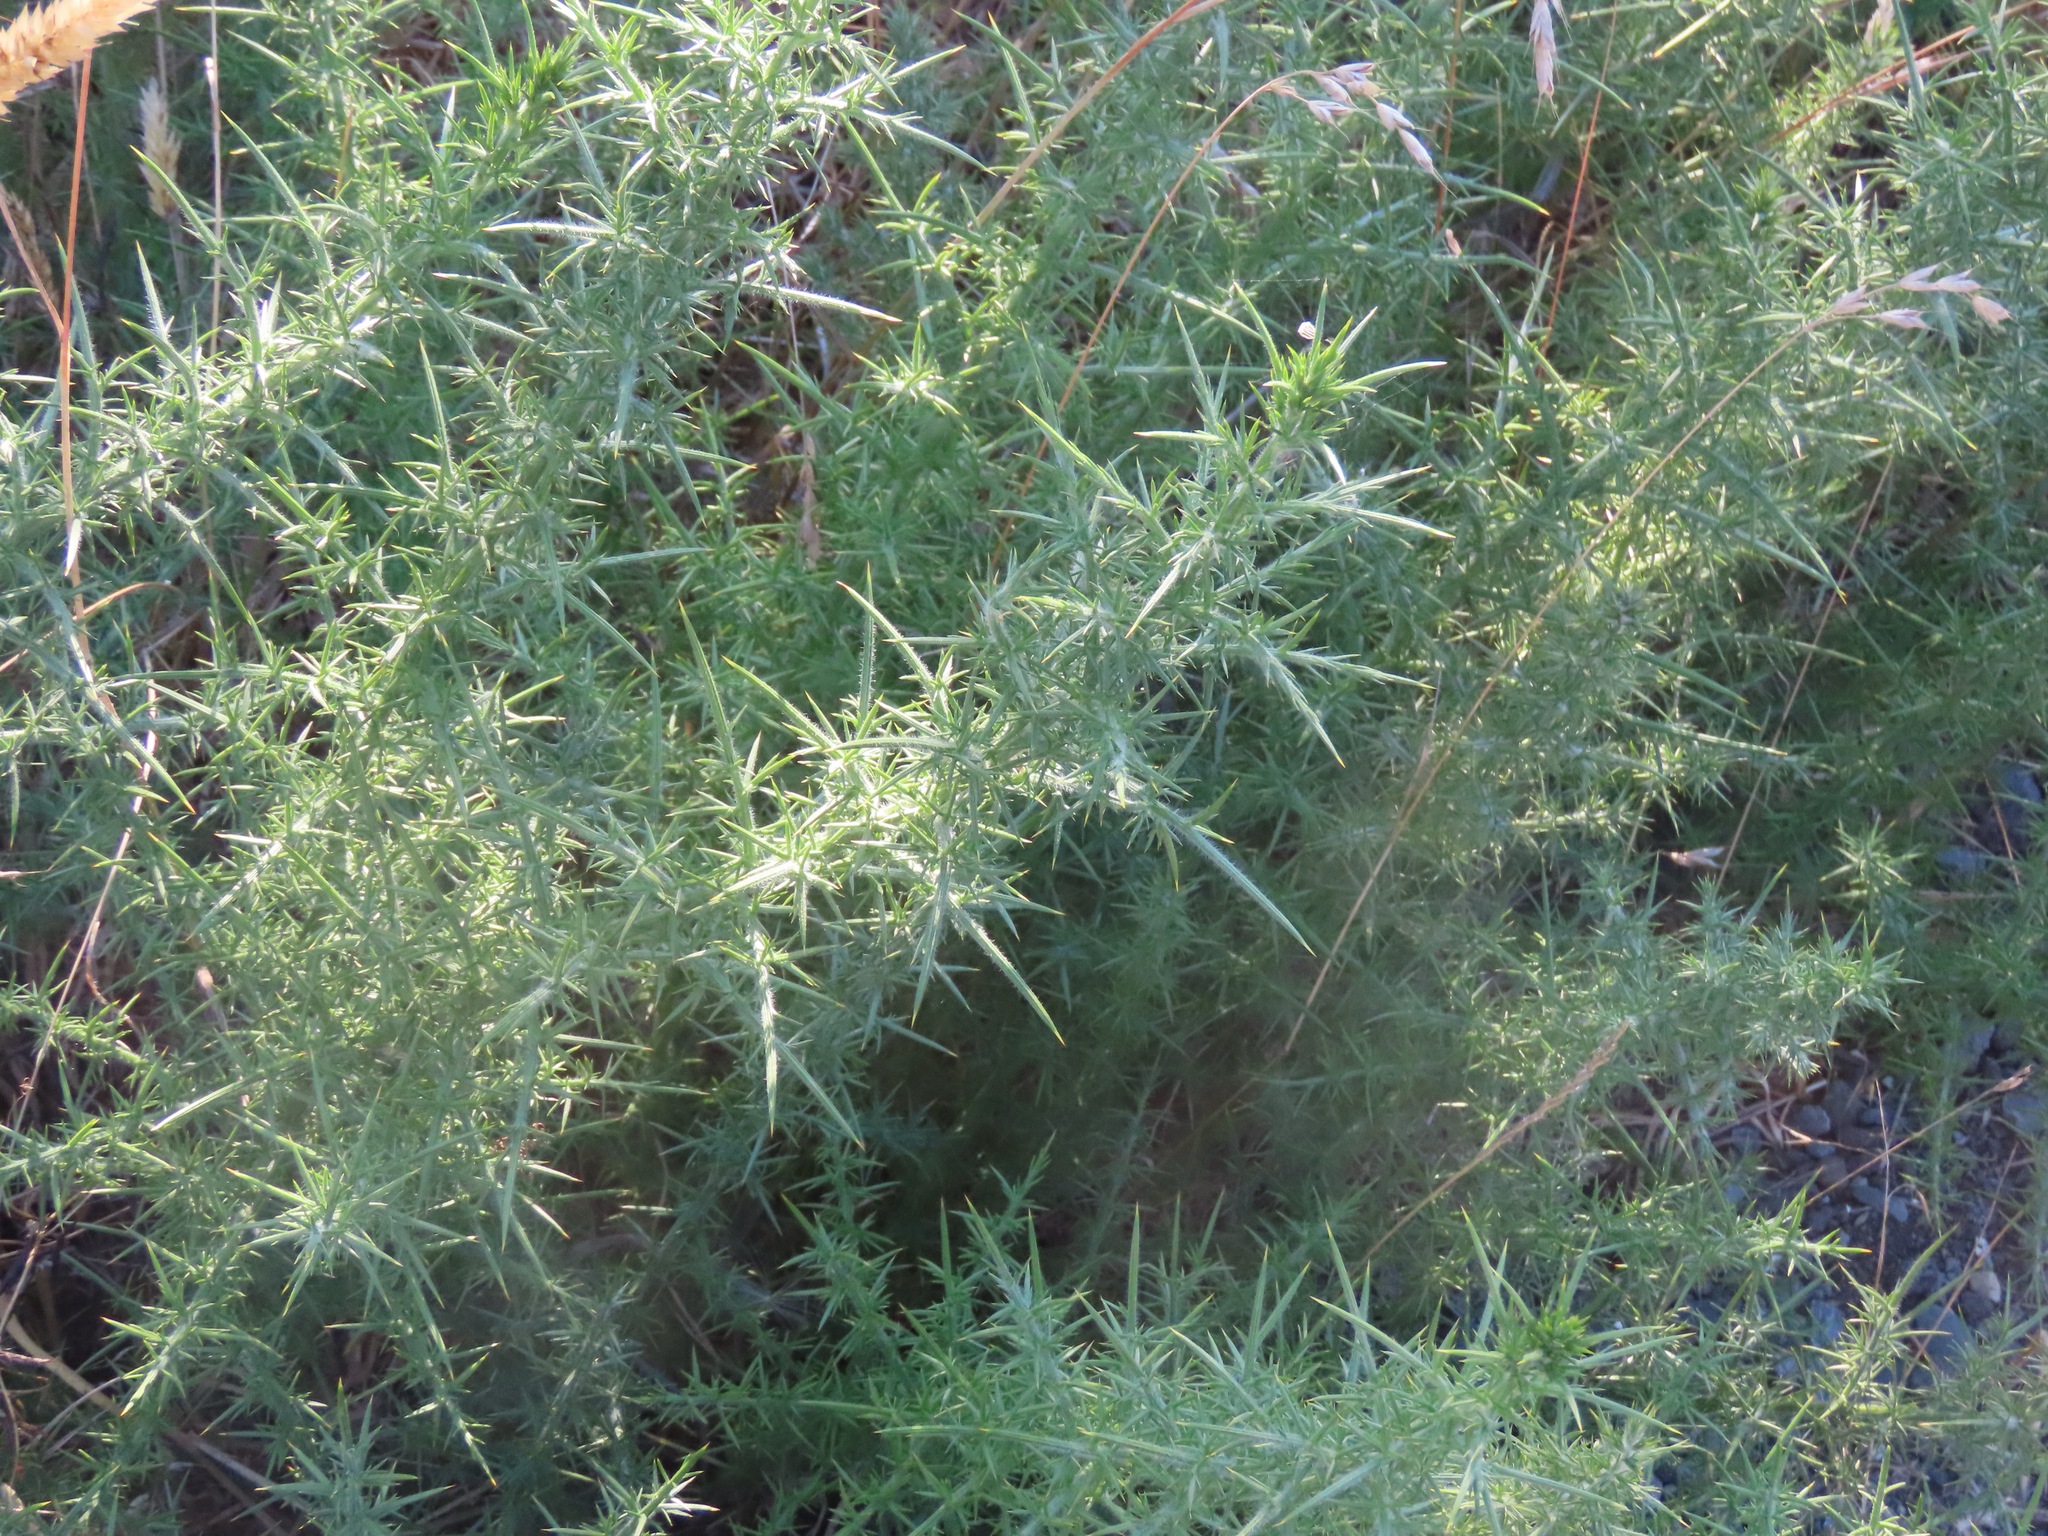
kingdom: Plantae
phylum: Tracheophyta
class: Magnoliopsida
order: Fabales
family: Fabaceae
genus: Ulex
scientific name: Ulex europaeus
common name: Common gorse
